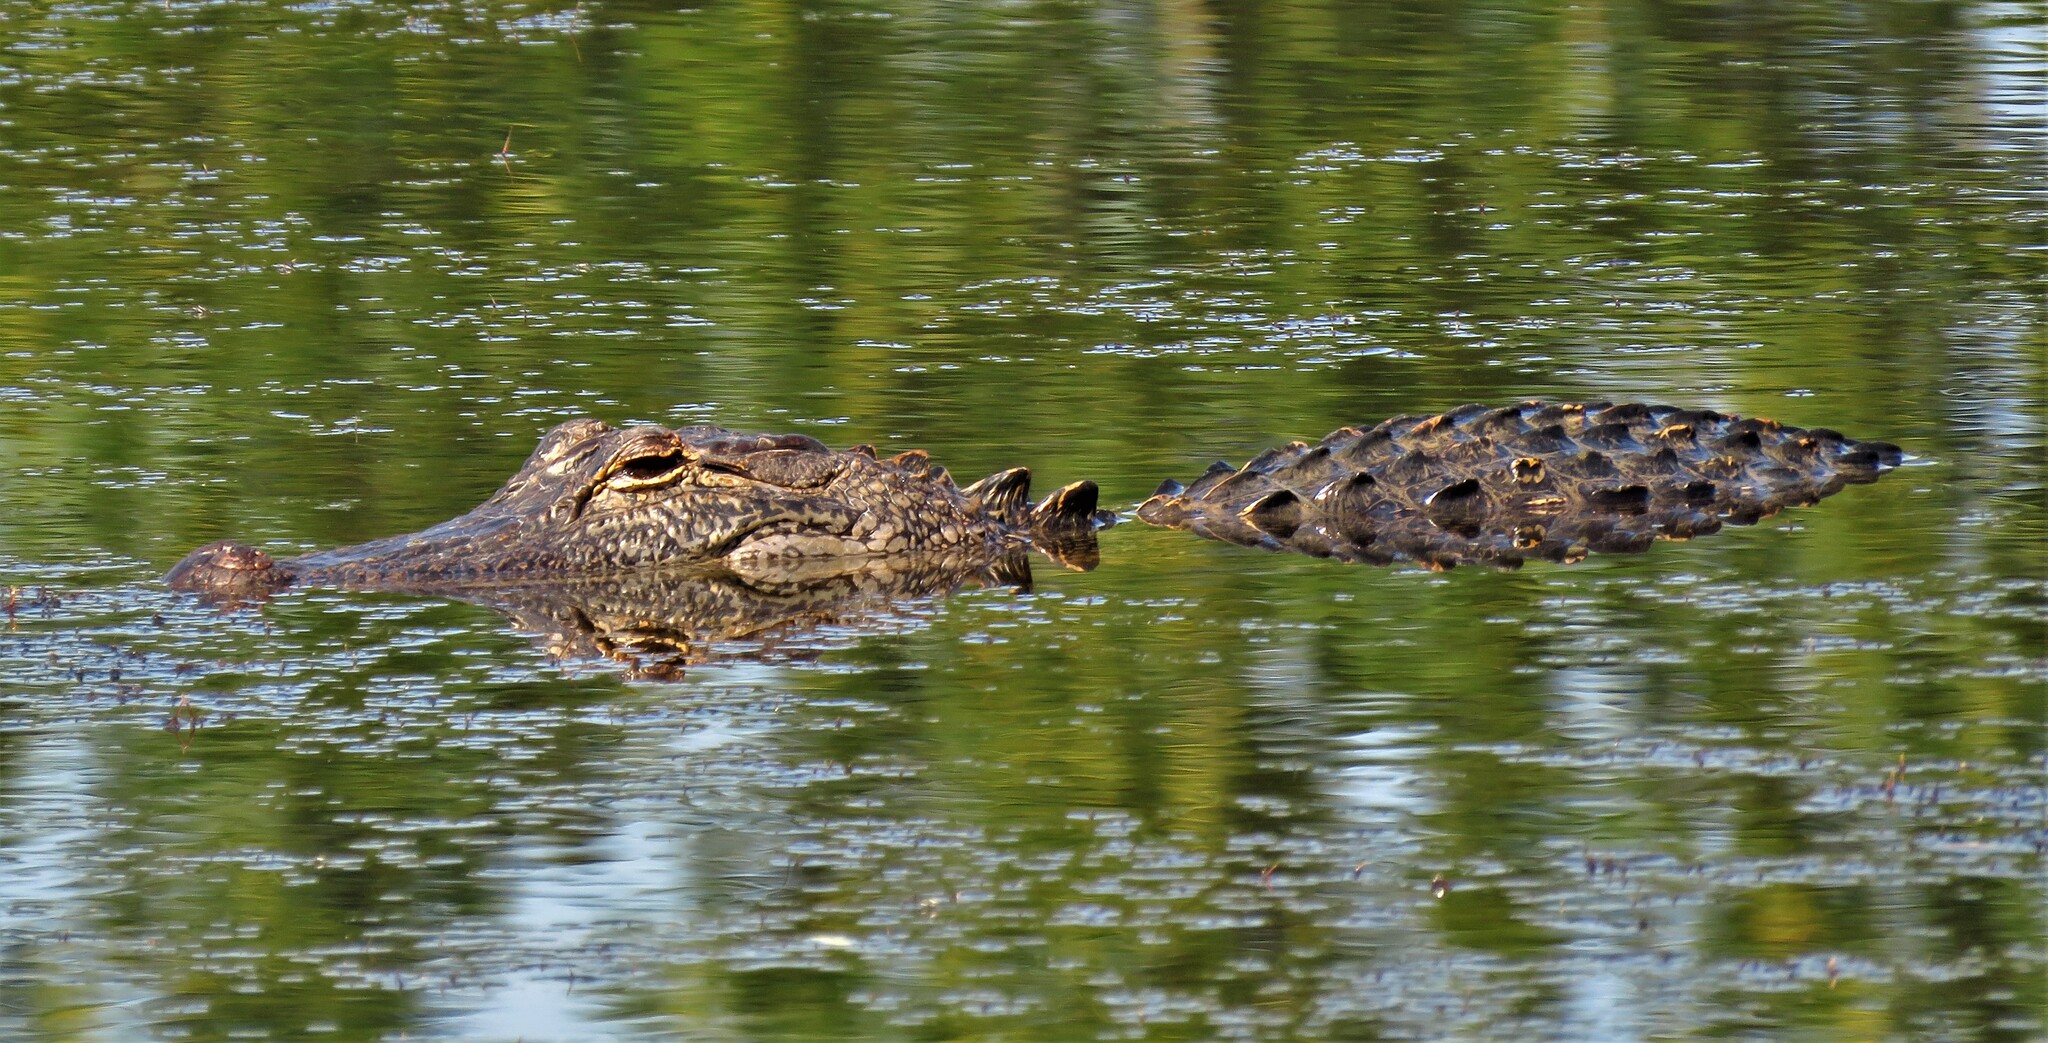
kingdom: Animalia
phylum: Chordata
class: Crocodylia
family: Alligatoridae
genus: Alligator
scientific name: Alligator mississippiensis
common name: American alligator
